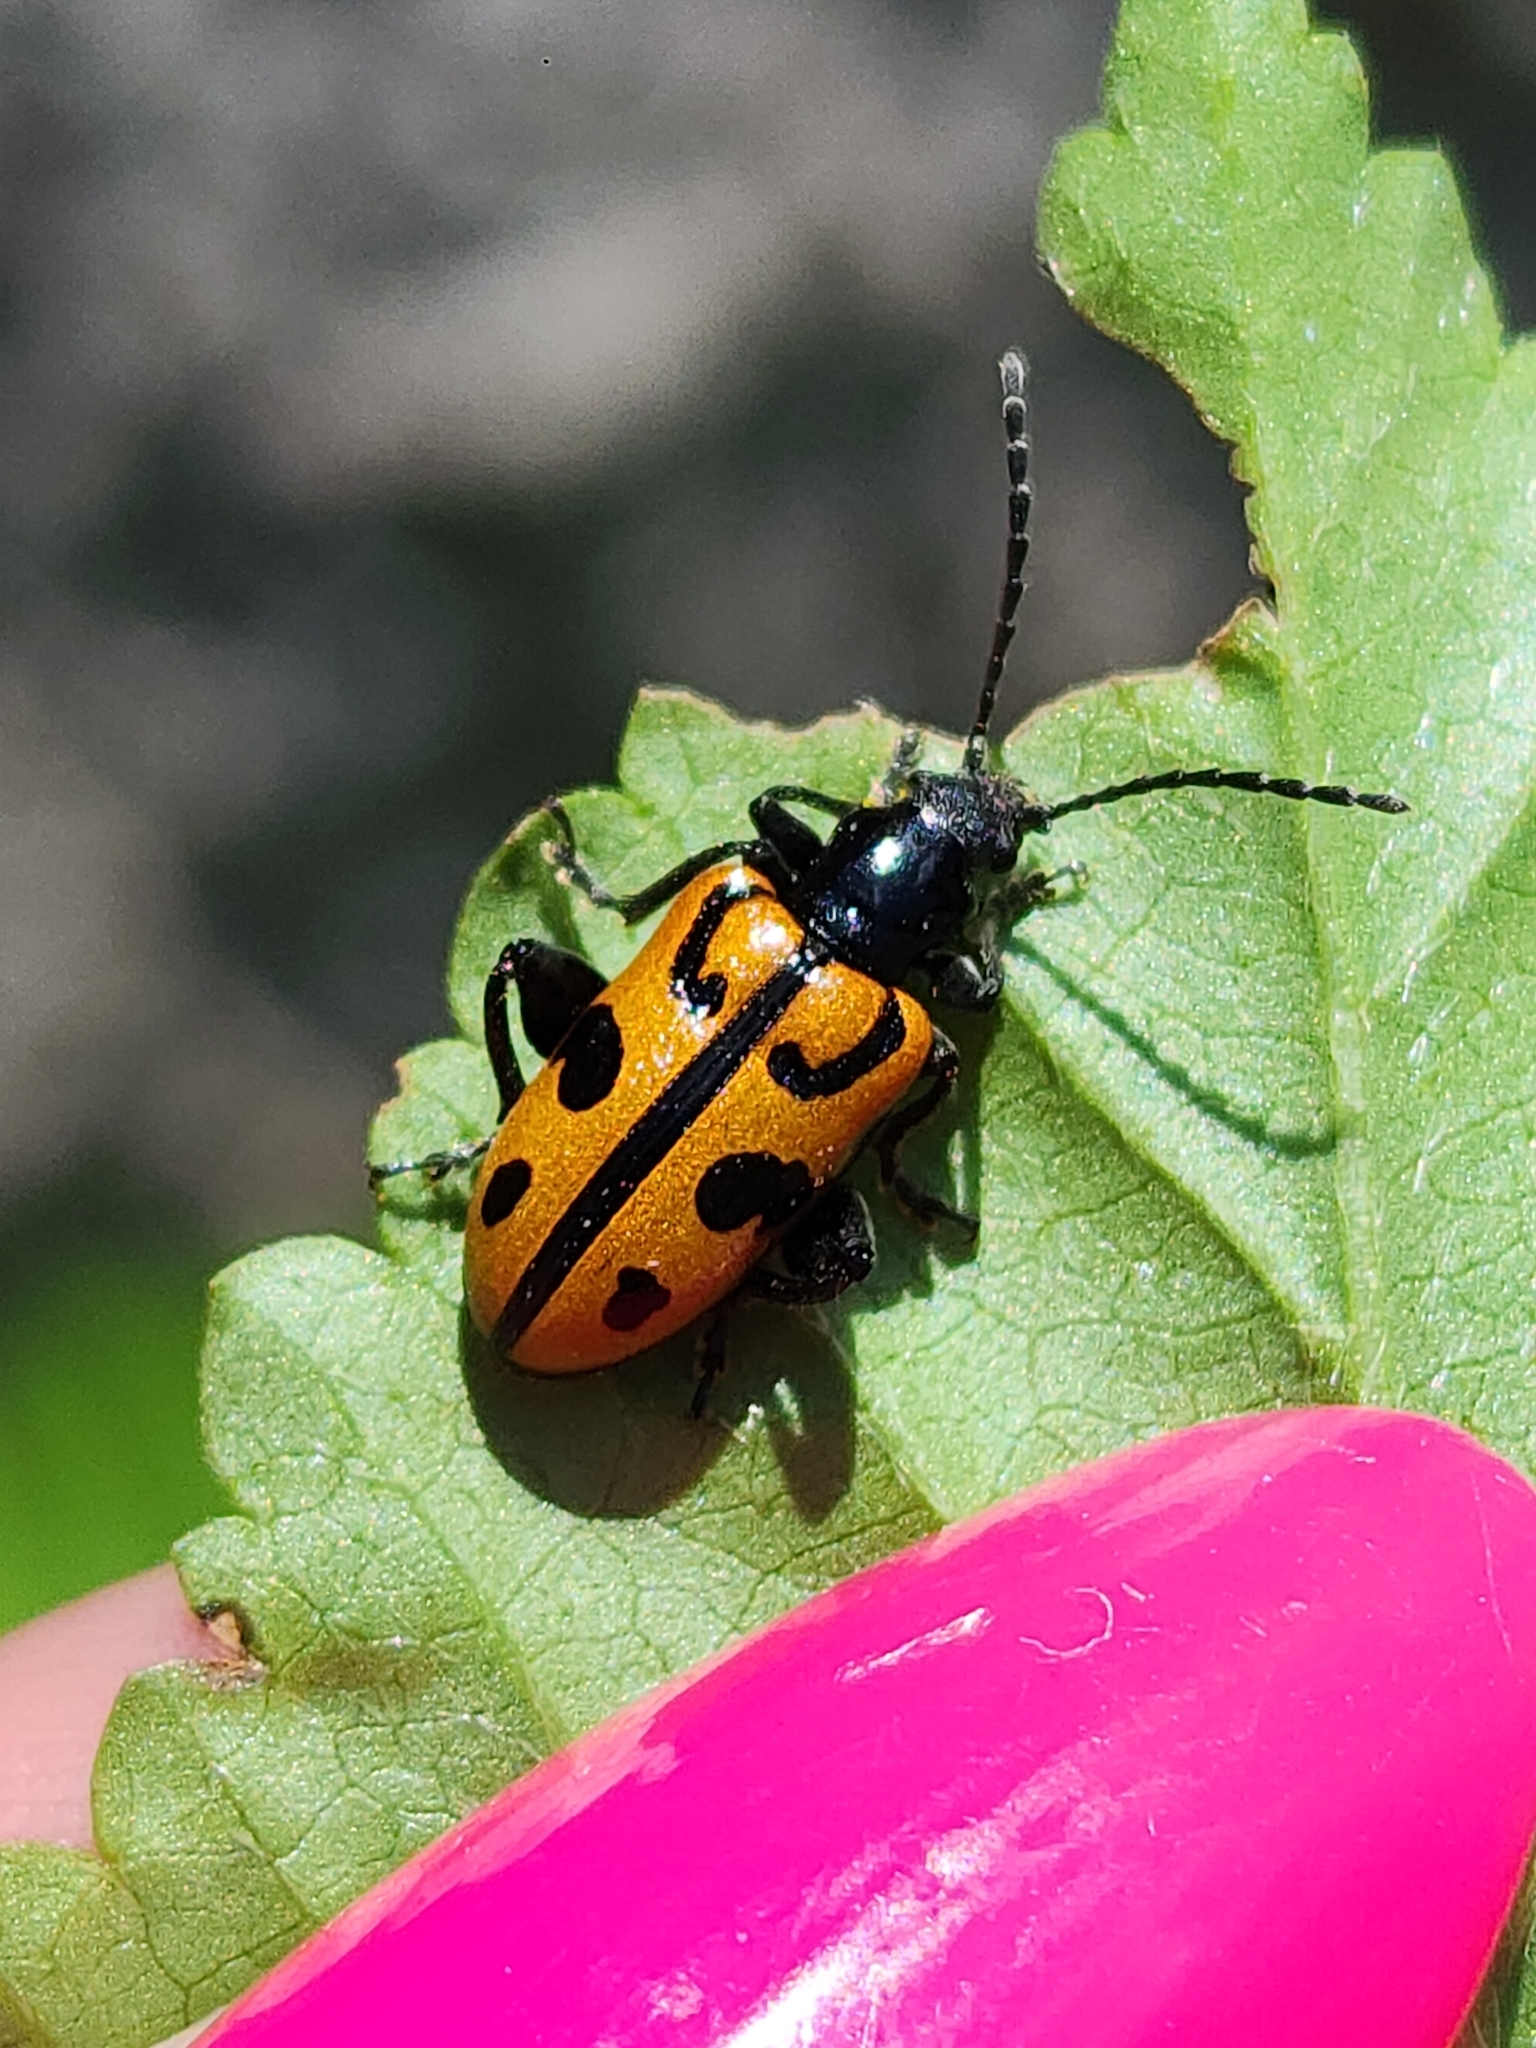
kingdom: Animalia
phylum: Arthropoda
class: Insecta
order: Coleoptera
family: Chrysomelidae
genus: Atalasis
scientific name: Atalasis
